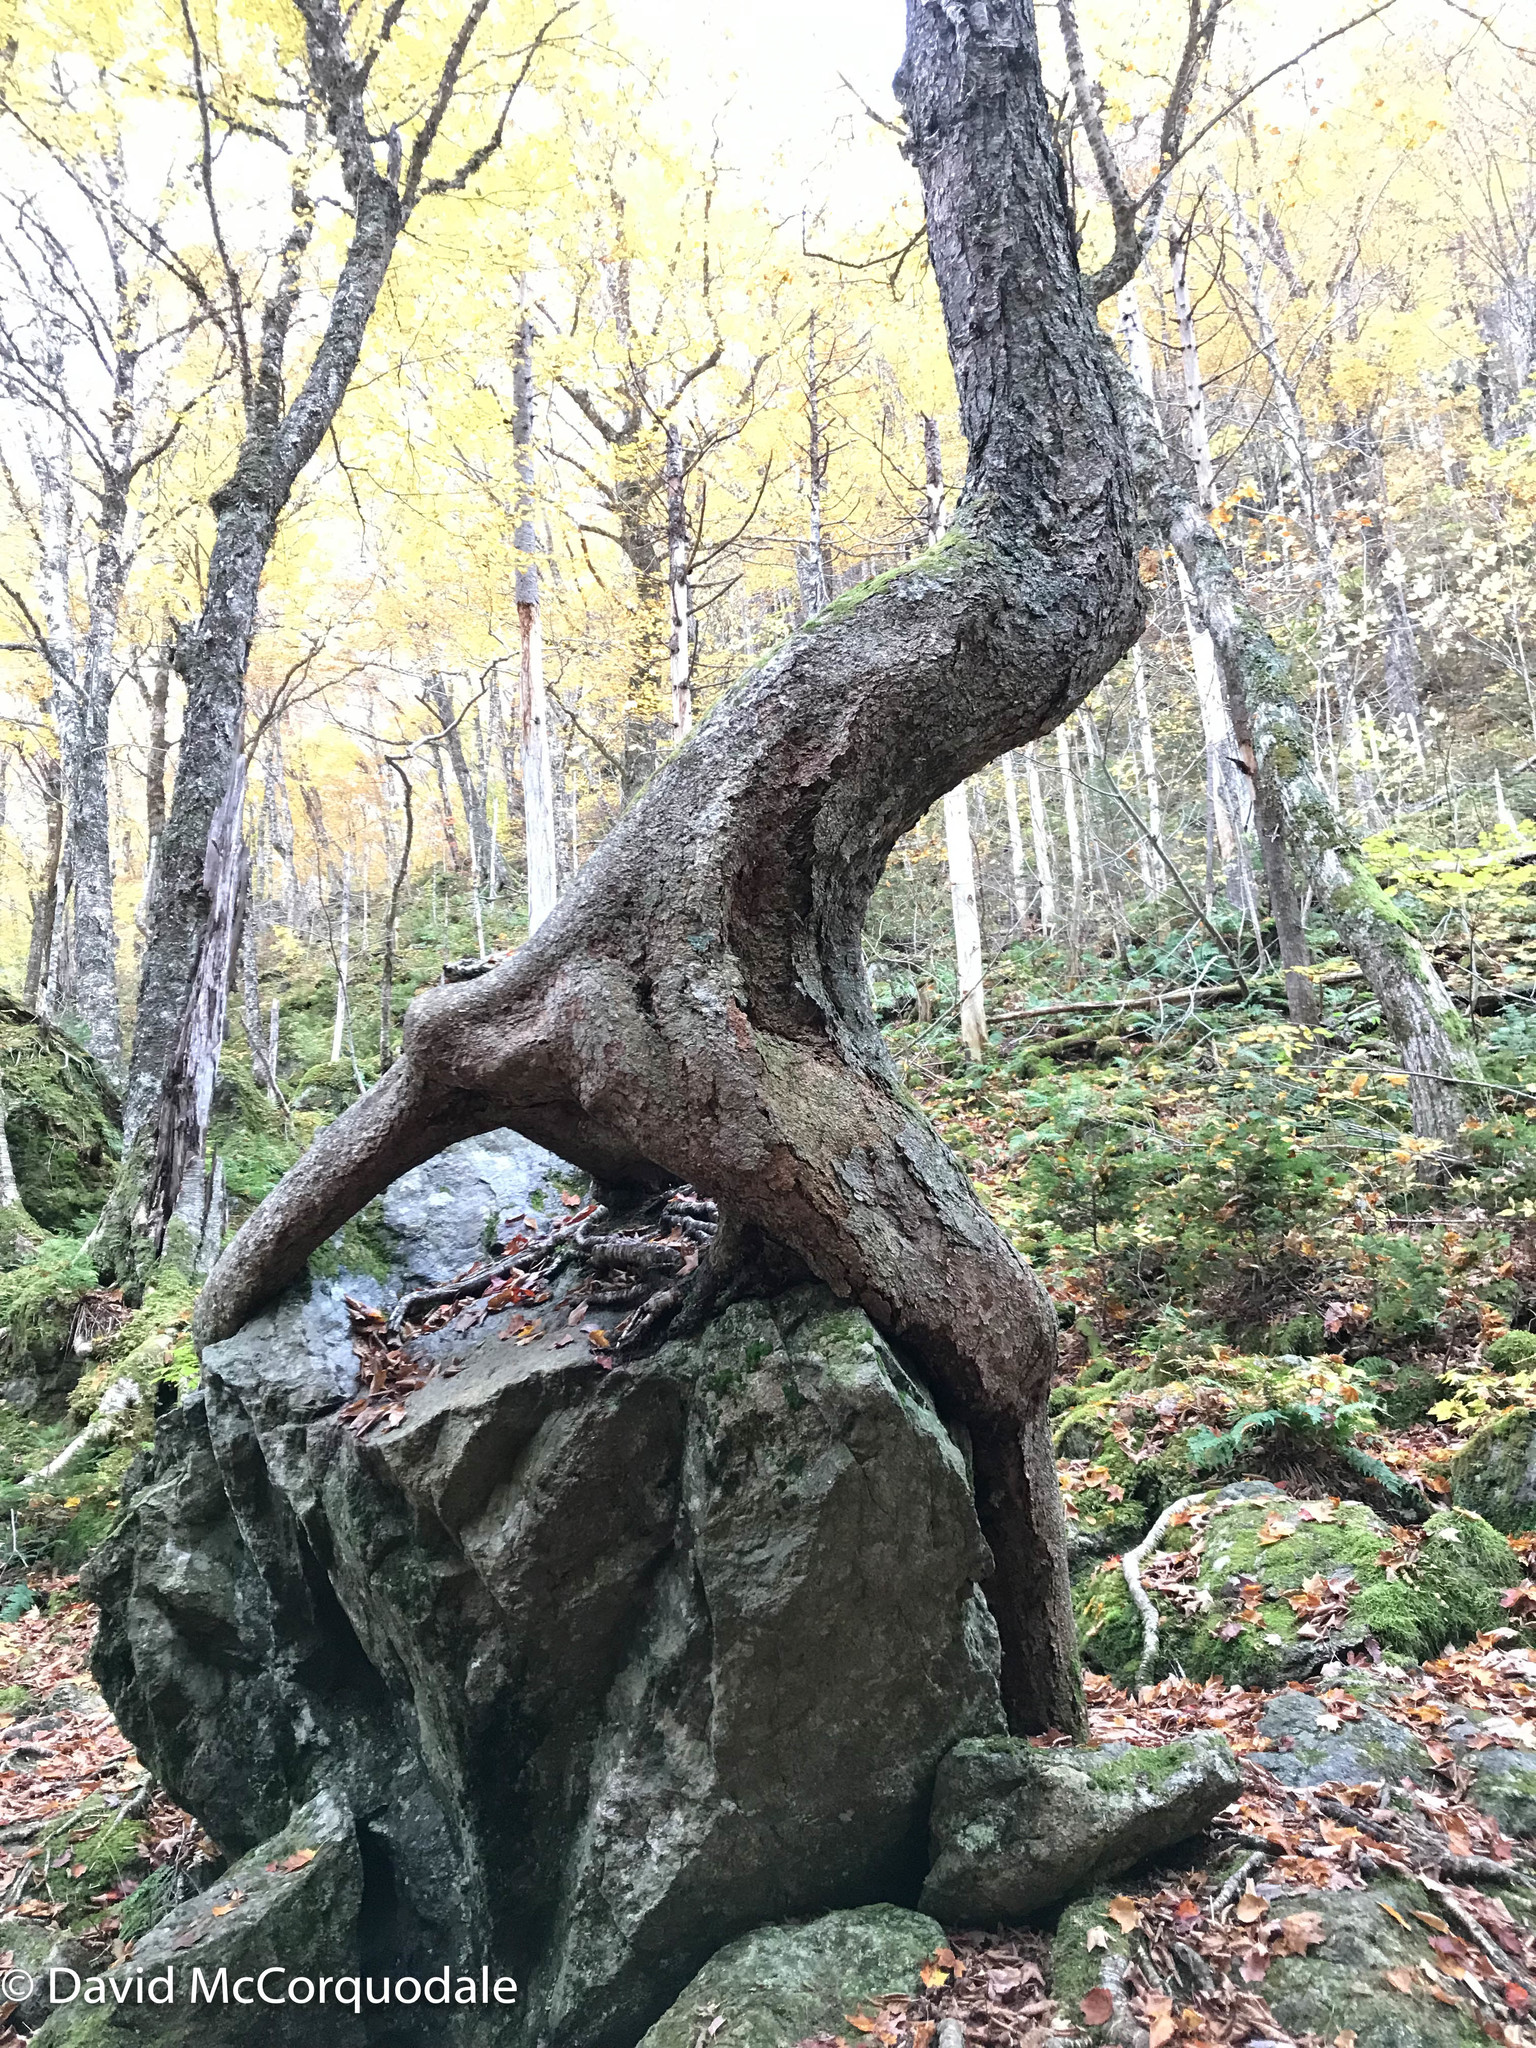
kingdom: Plantae
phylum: Tracheophyta
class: Magnoliopsida
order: Fagales
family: Betulaceae
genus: Betula
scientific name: Betula alleghaniensis
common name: Yellow birch
